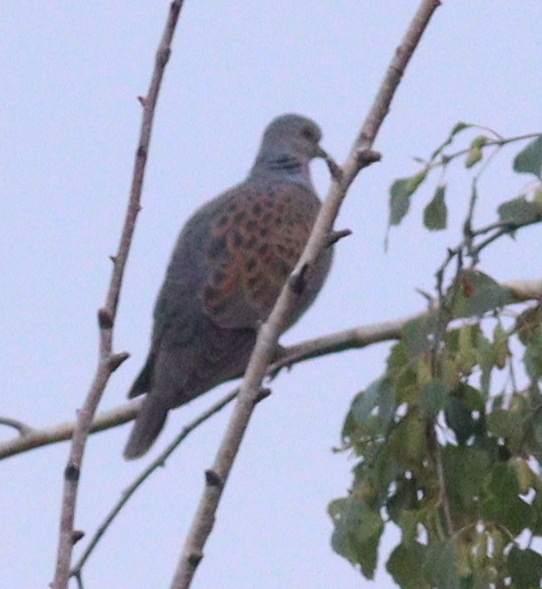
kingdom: Animalia
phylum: Chordata
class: Aves
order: Columbiformes
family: Columbidae
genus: Streptopelia
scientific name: Streptopelia turtur
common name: European turtle dove
